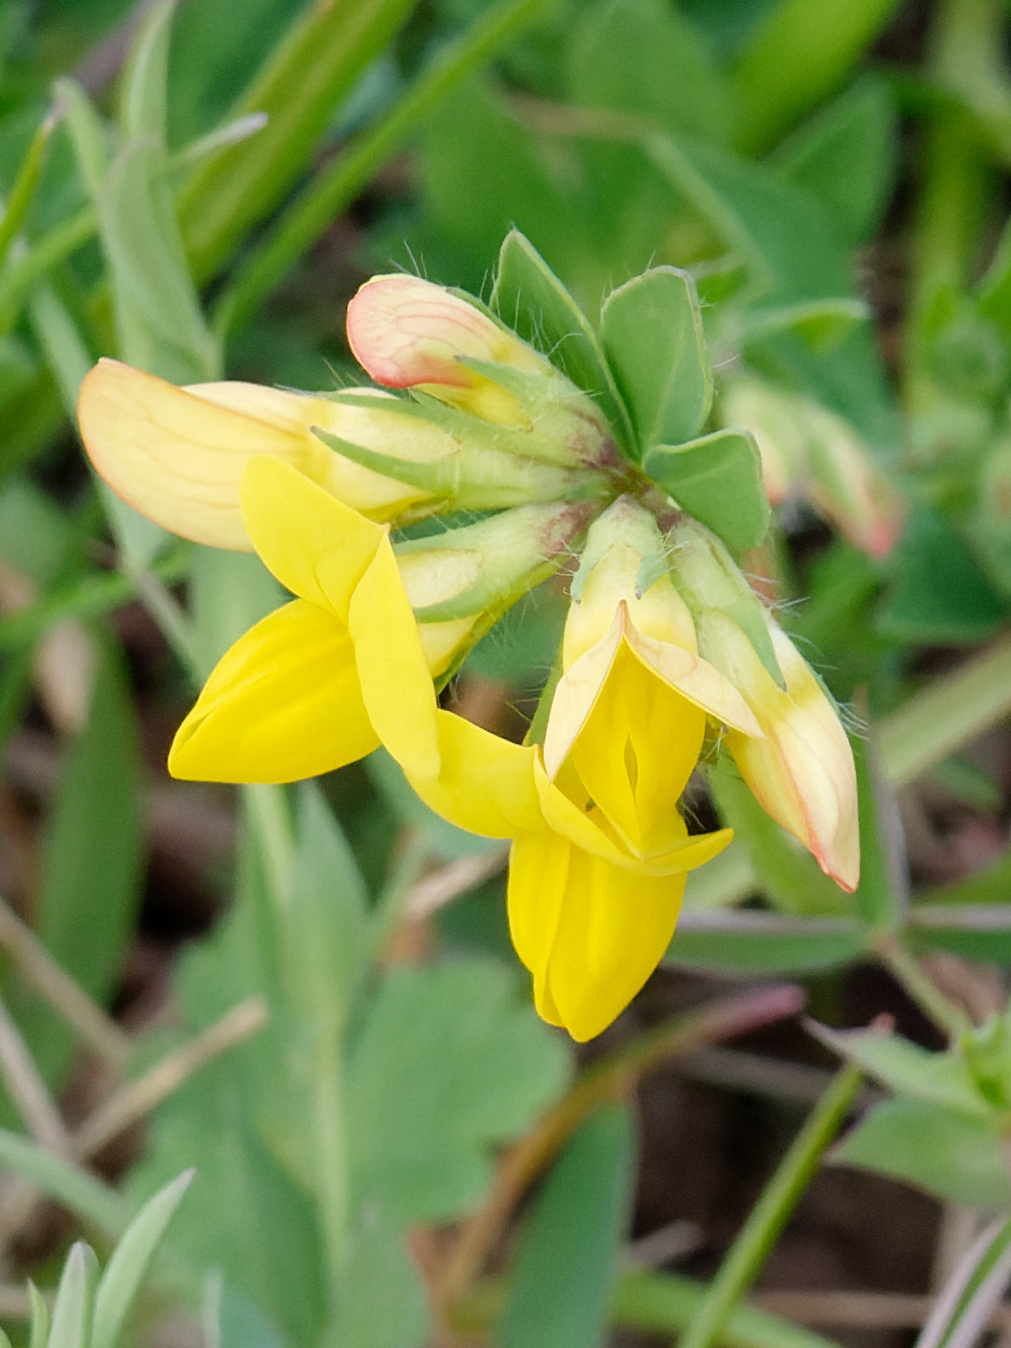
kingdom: Plantae
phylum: Tracheophyta
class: Magnoliopsida
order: Fabales
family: Fabaceae
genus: Lotus
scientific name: Lotus corniculatus
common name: Common bird's-foot-trefoil
